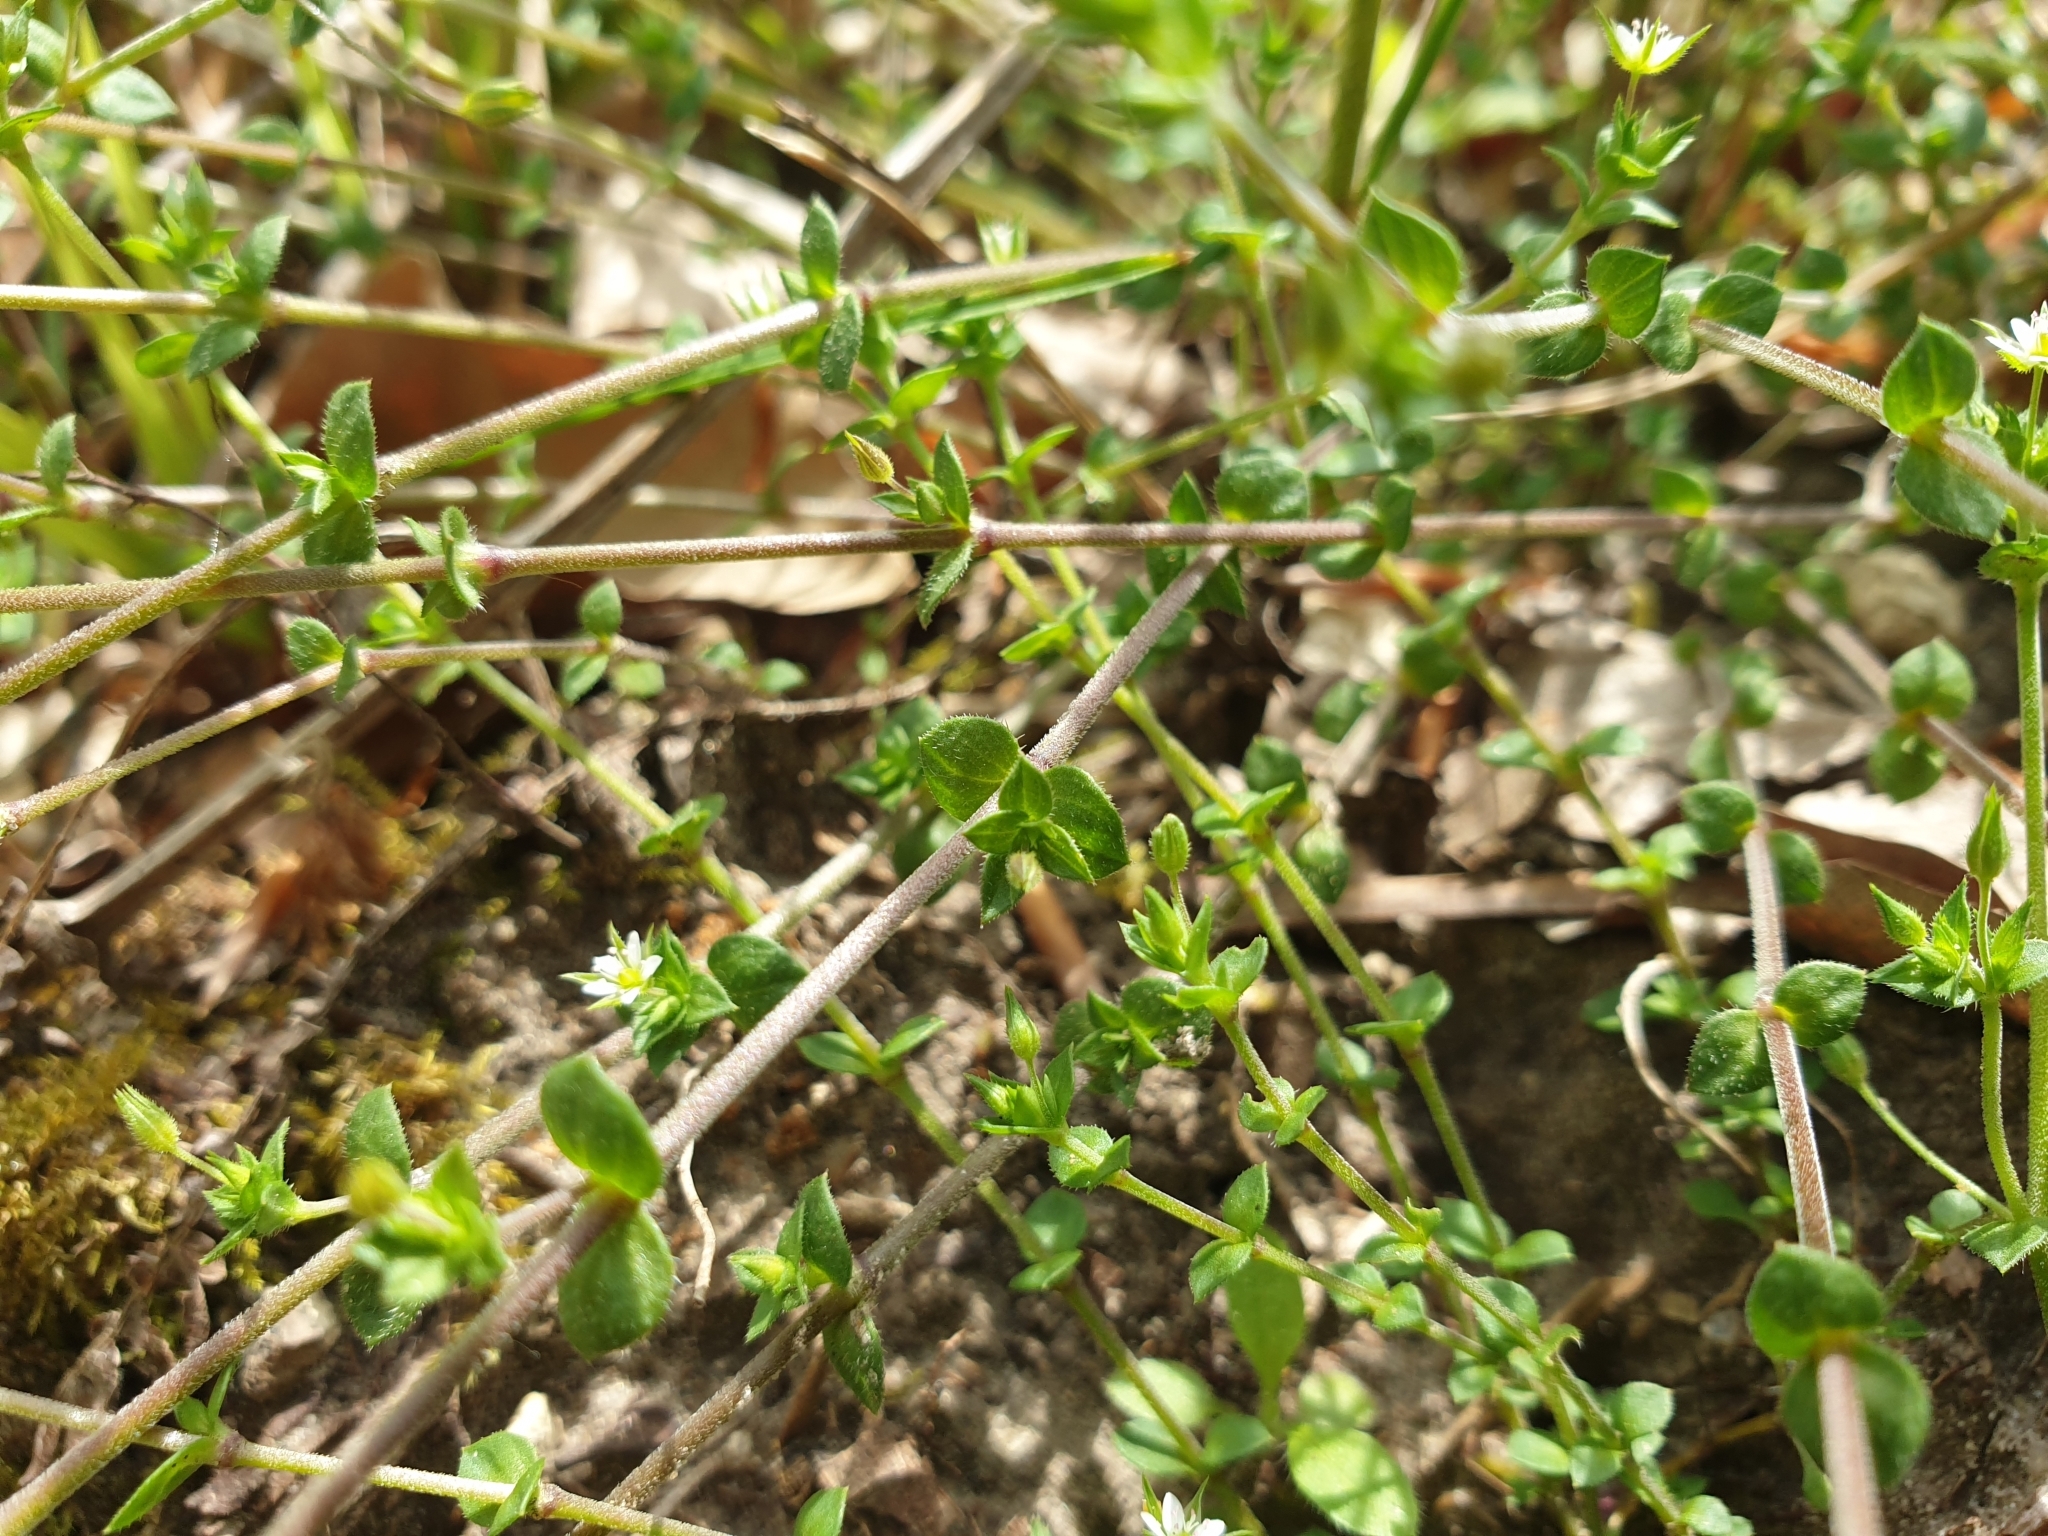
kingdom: Plantae
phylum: Tracheophyta
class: Magnoliopsida
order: Caryophyllales
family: Caryophyllaceae
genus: Arenaria
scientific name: Arenaria serpyllifolia
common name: Thyme-leaved sandwort
